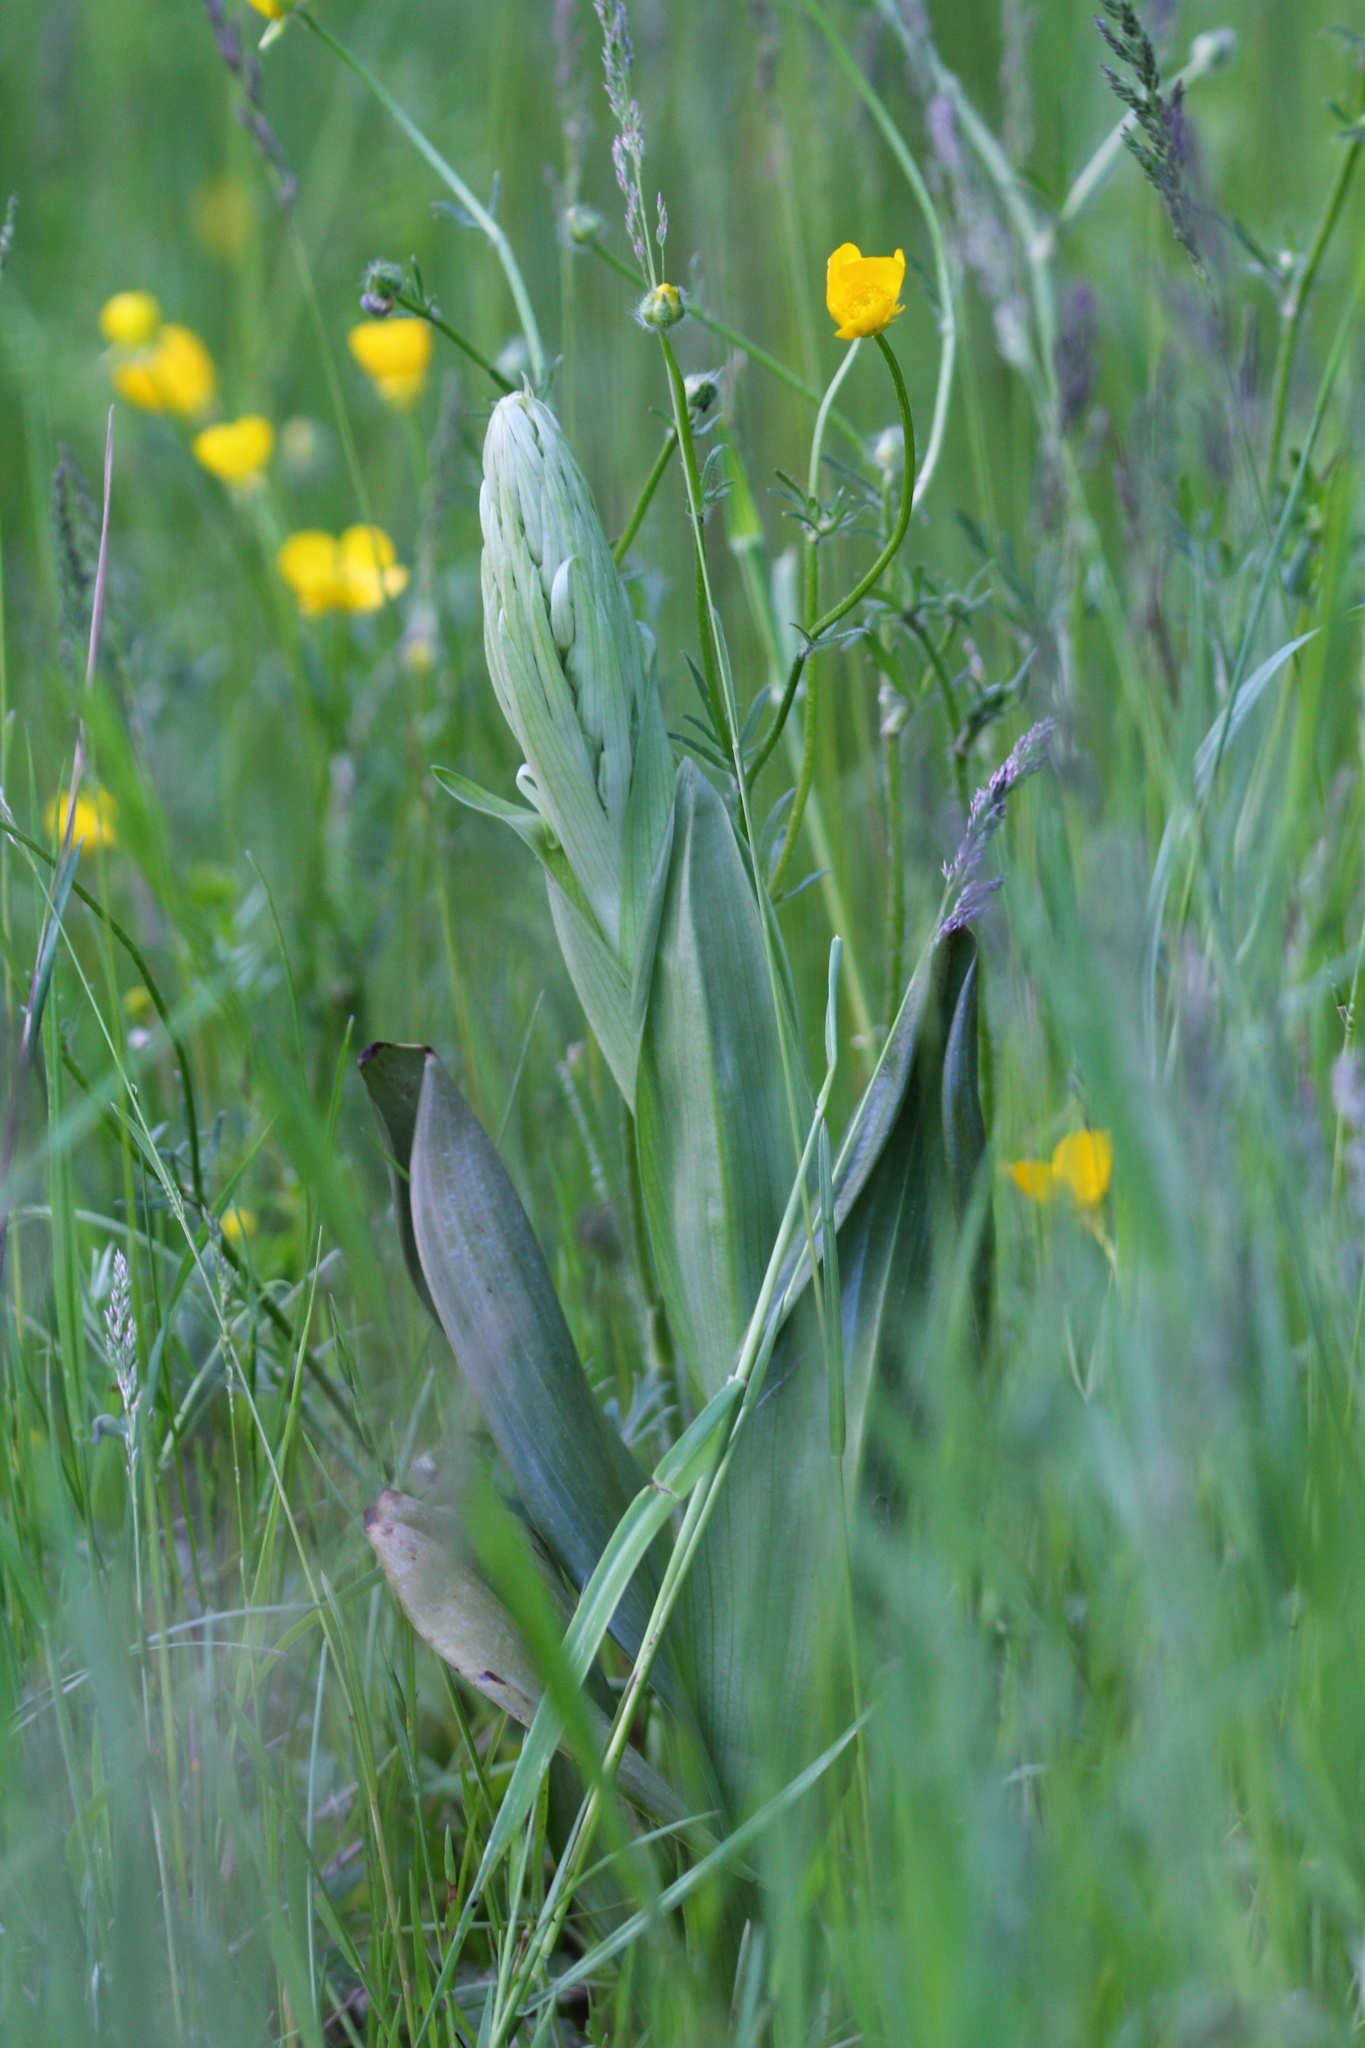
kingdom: Plantae
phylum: Tracheophyta
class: Liliopsida
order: Asparagales
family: Orchidaceae
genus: Himantoglossum
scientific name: Himantoglossum hircinum
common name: Lizard orchid
